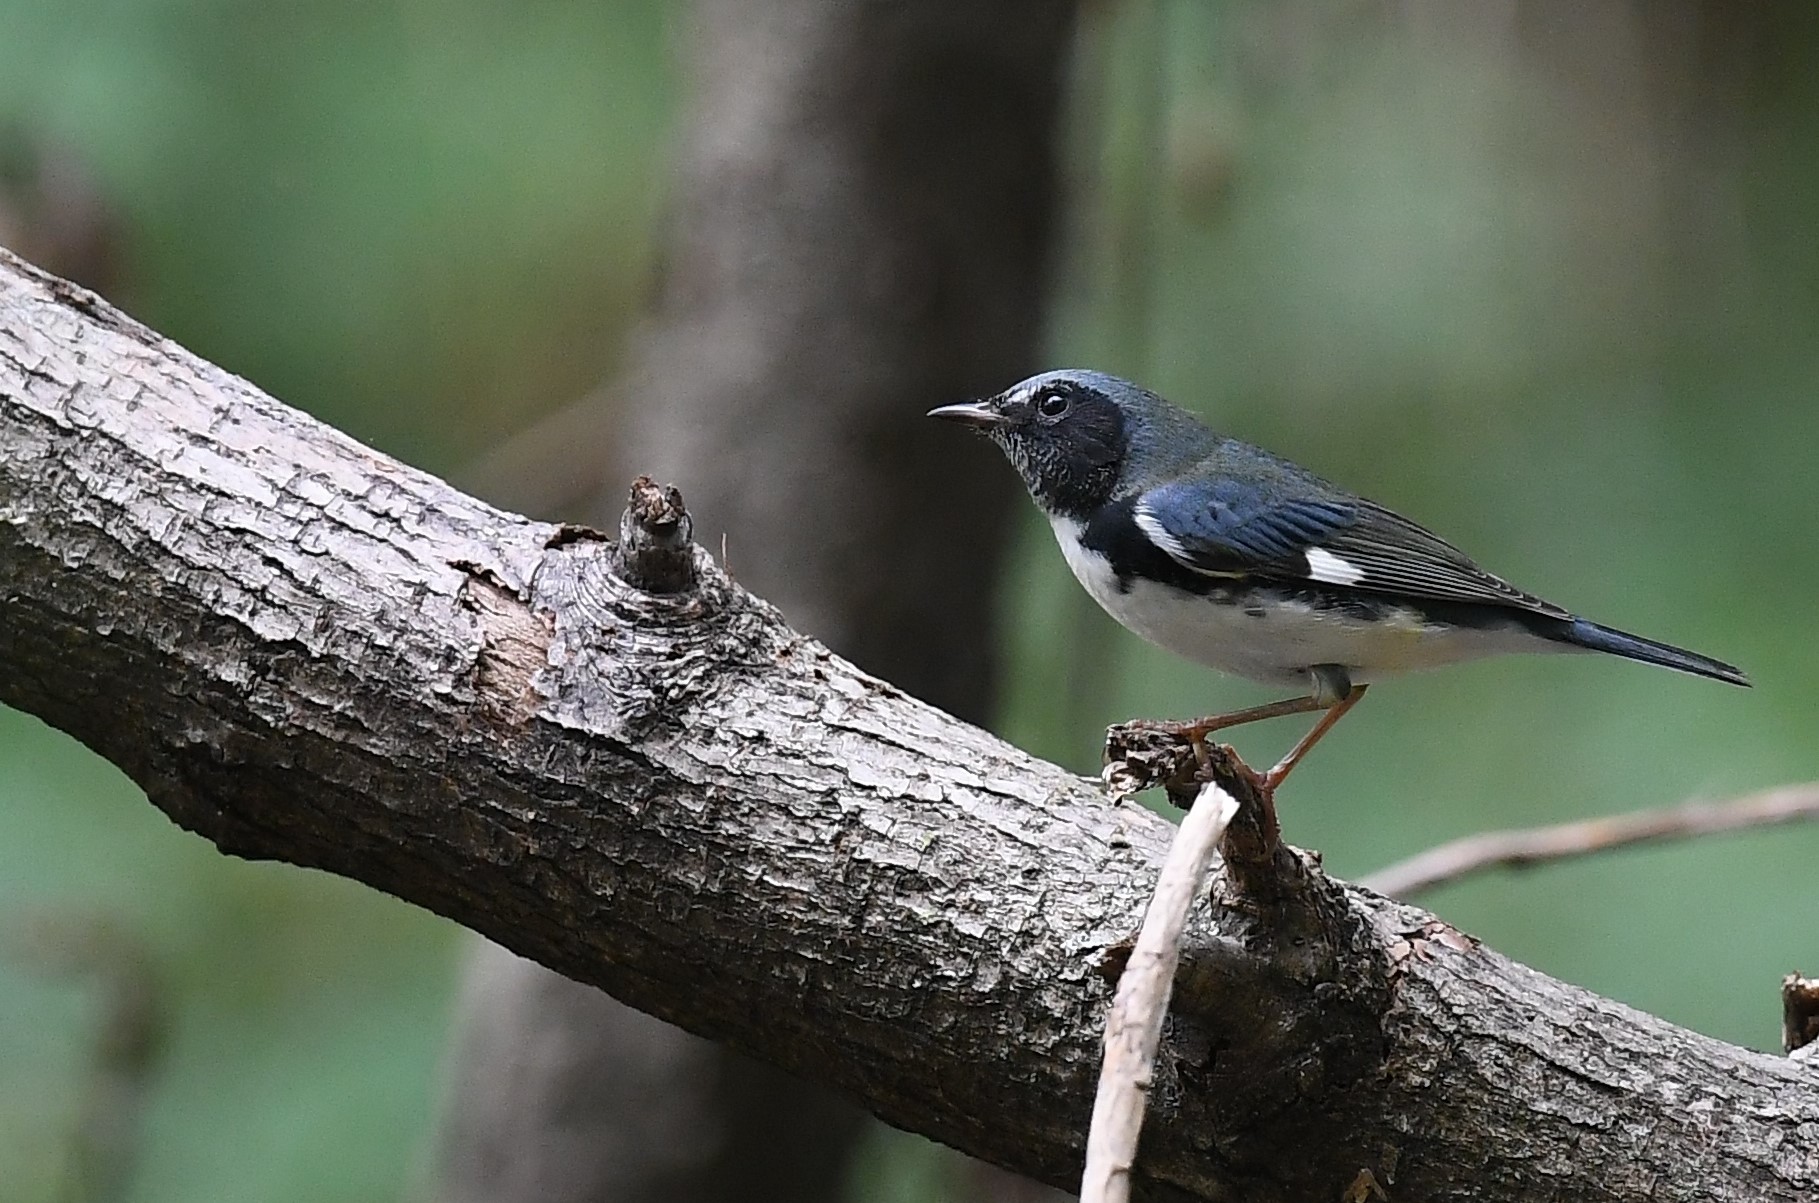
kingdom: Animalia
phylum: Chordata
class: Aves
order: Passeriformes
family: Parulidae
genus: Setophaga
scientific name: Setophaga caerulescens
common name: Black-throated blue warbler
